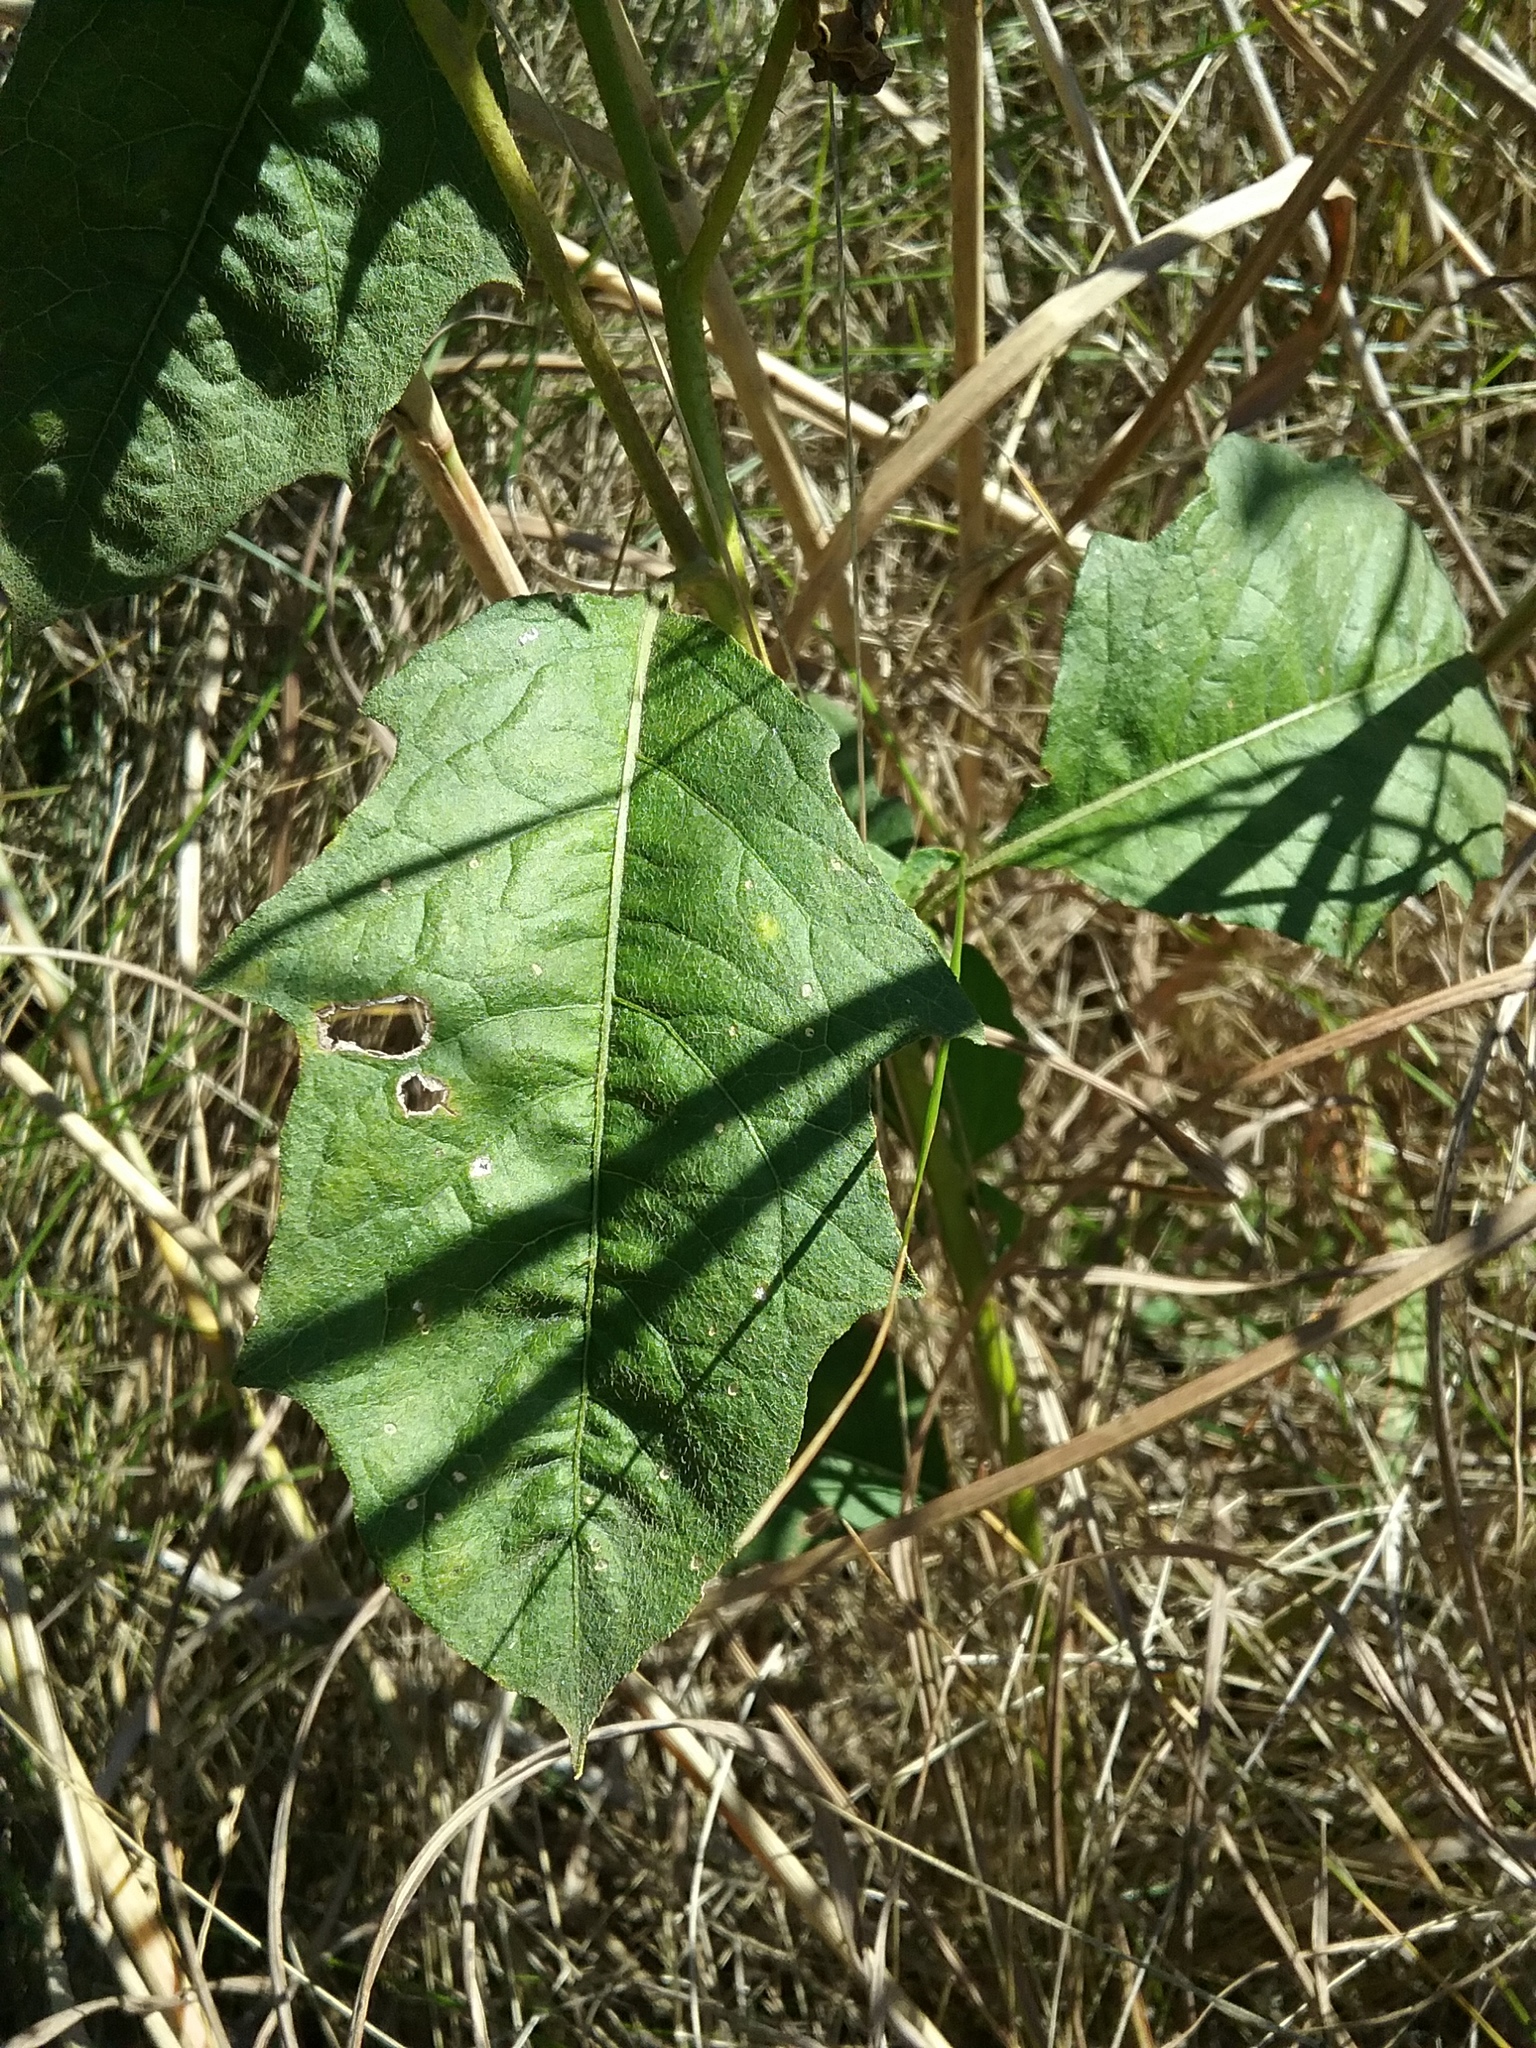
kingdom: Plantae
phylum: Tracheophyta
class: Magnoliopsida
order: Solanales
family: Solanaceae
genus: Solanum
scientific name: Solanum carolinense
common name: Horse-nettle
